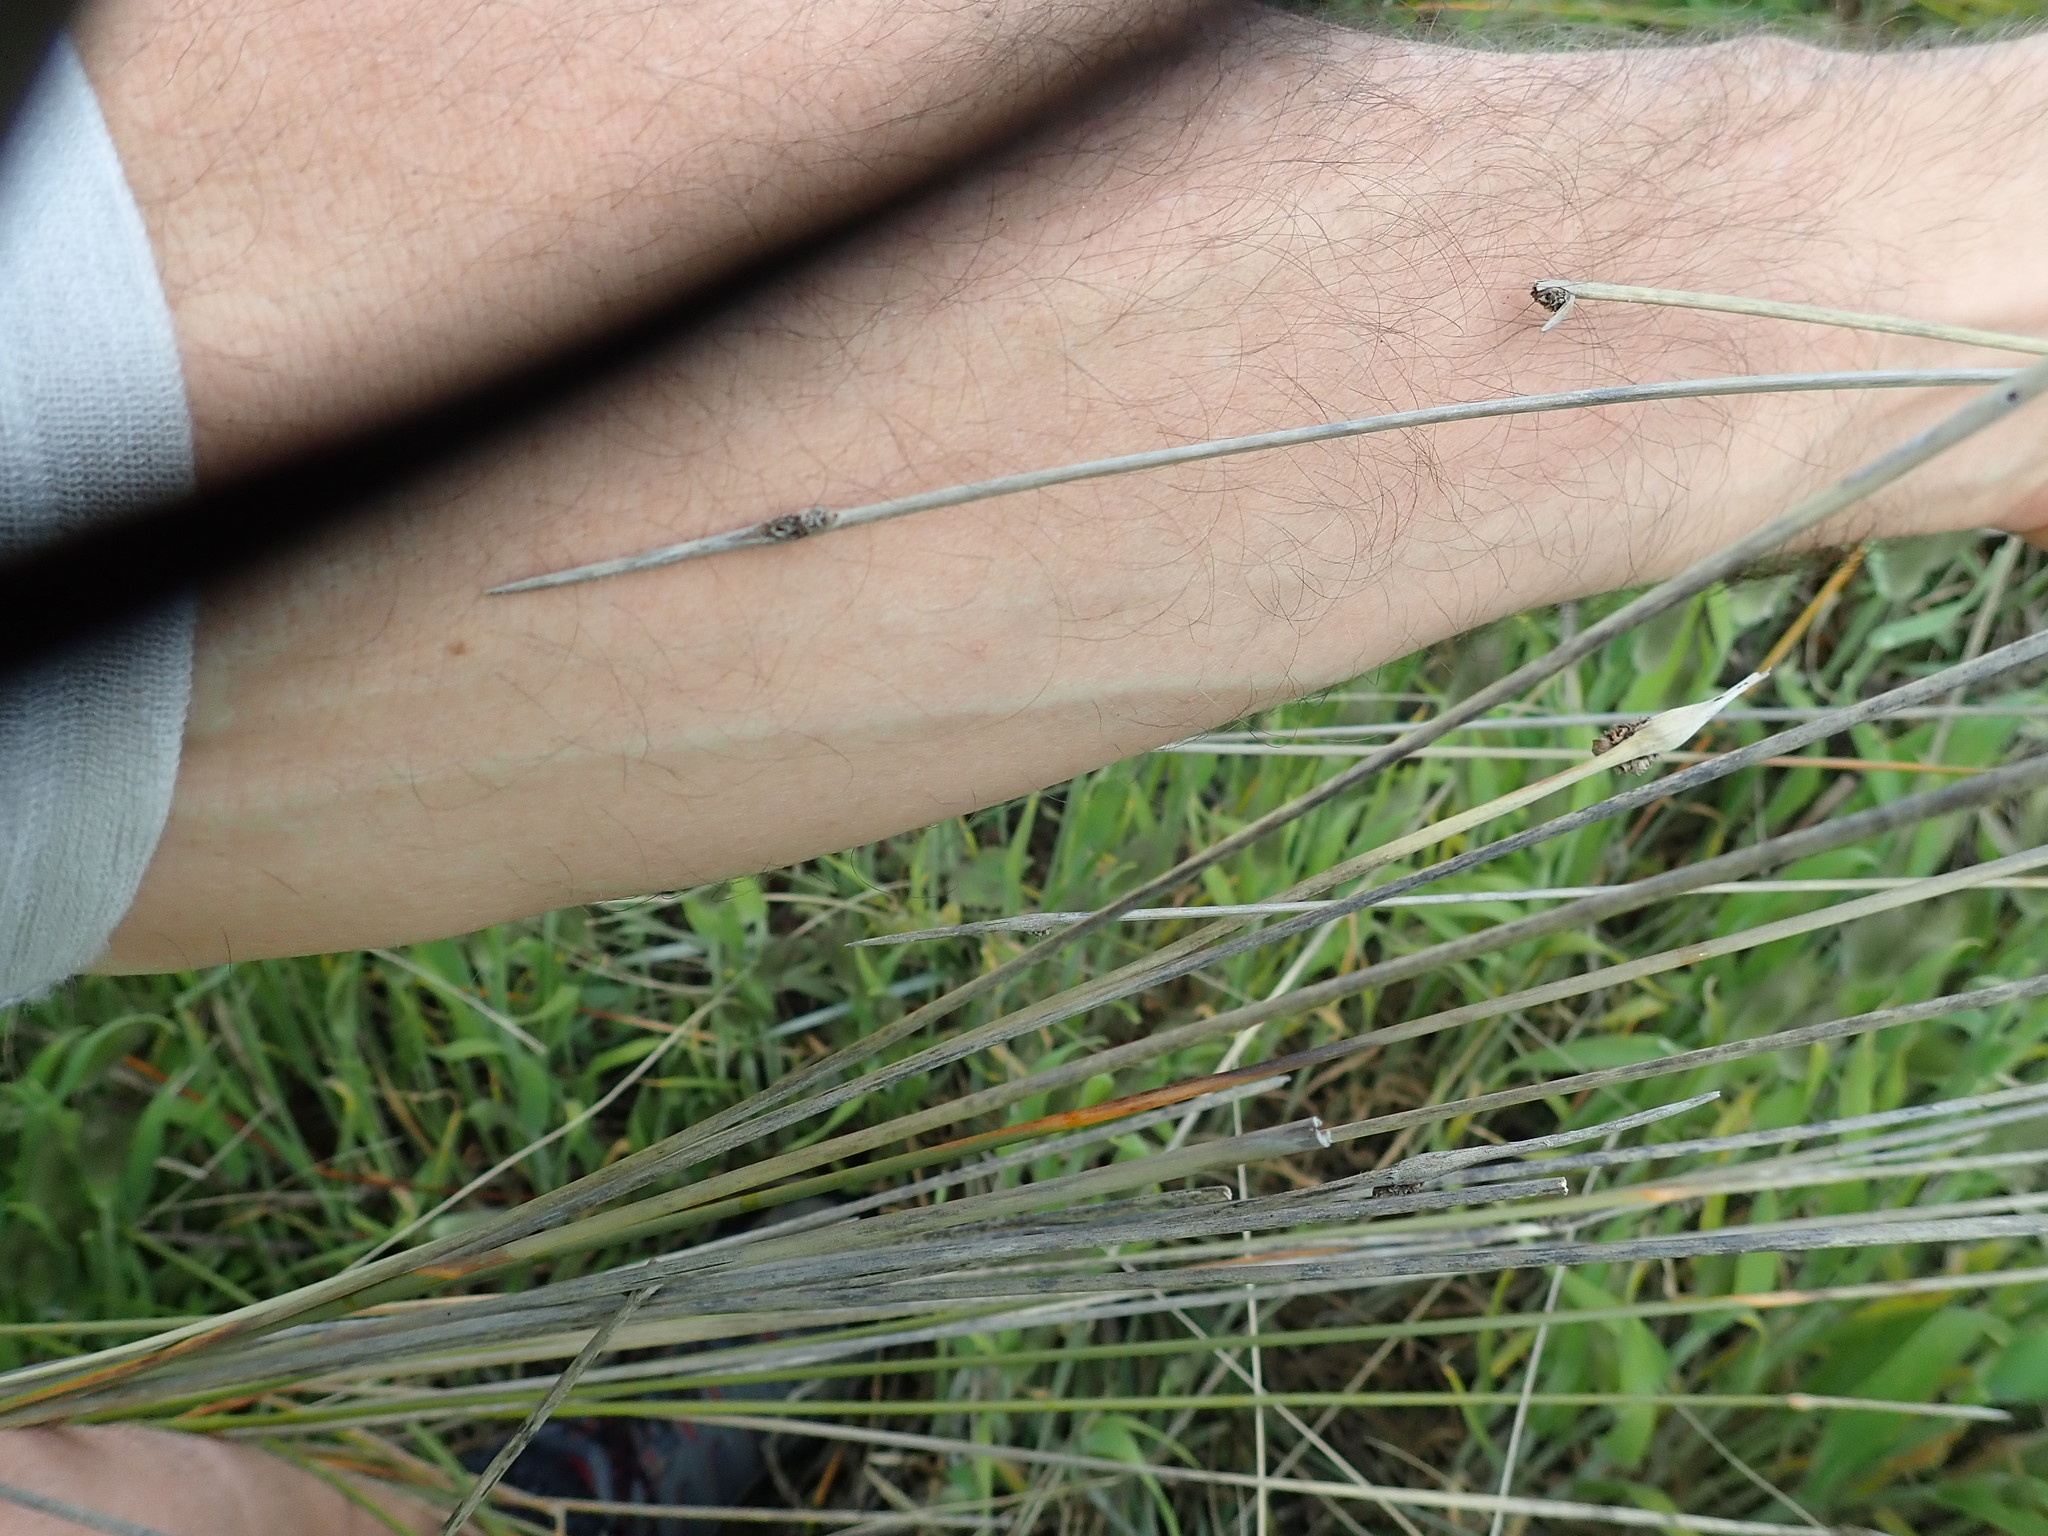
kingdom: Plantae
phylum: Tracheophyta
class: Liliopsida
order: Poales
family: Cyperaceae
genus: Ficinia
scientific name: Ficinia nodosa
